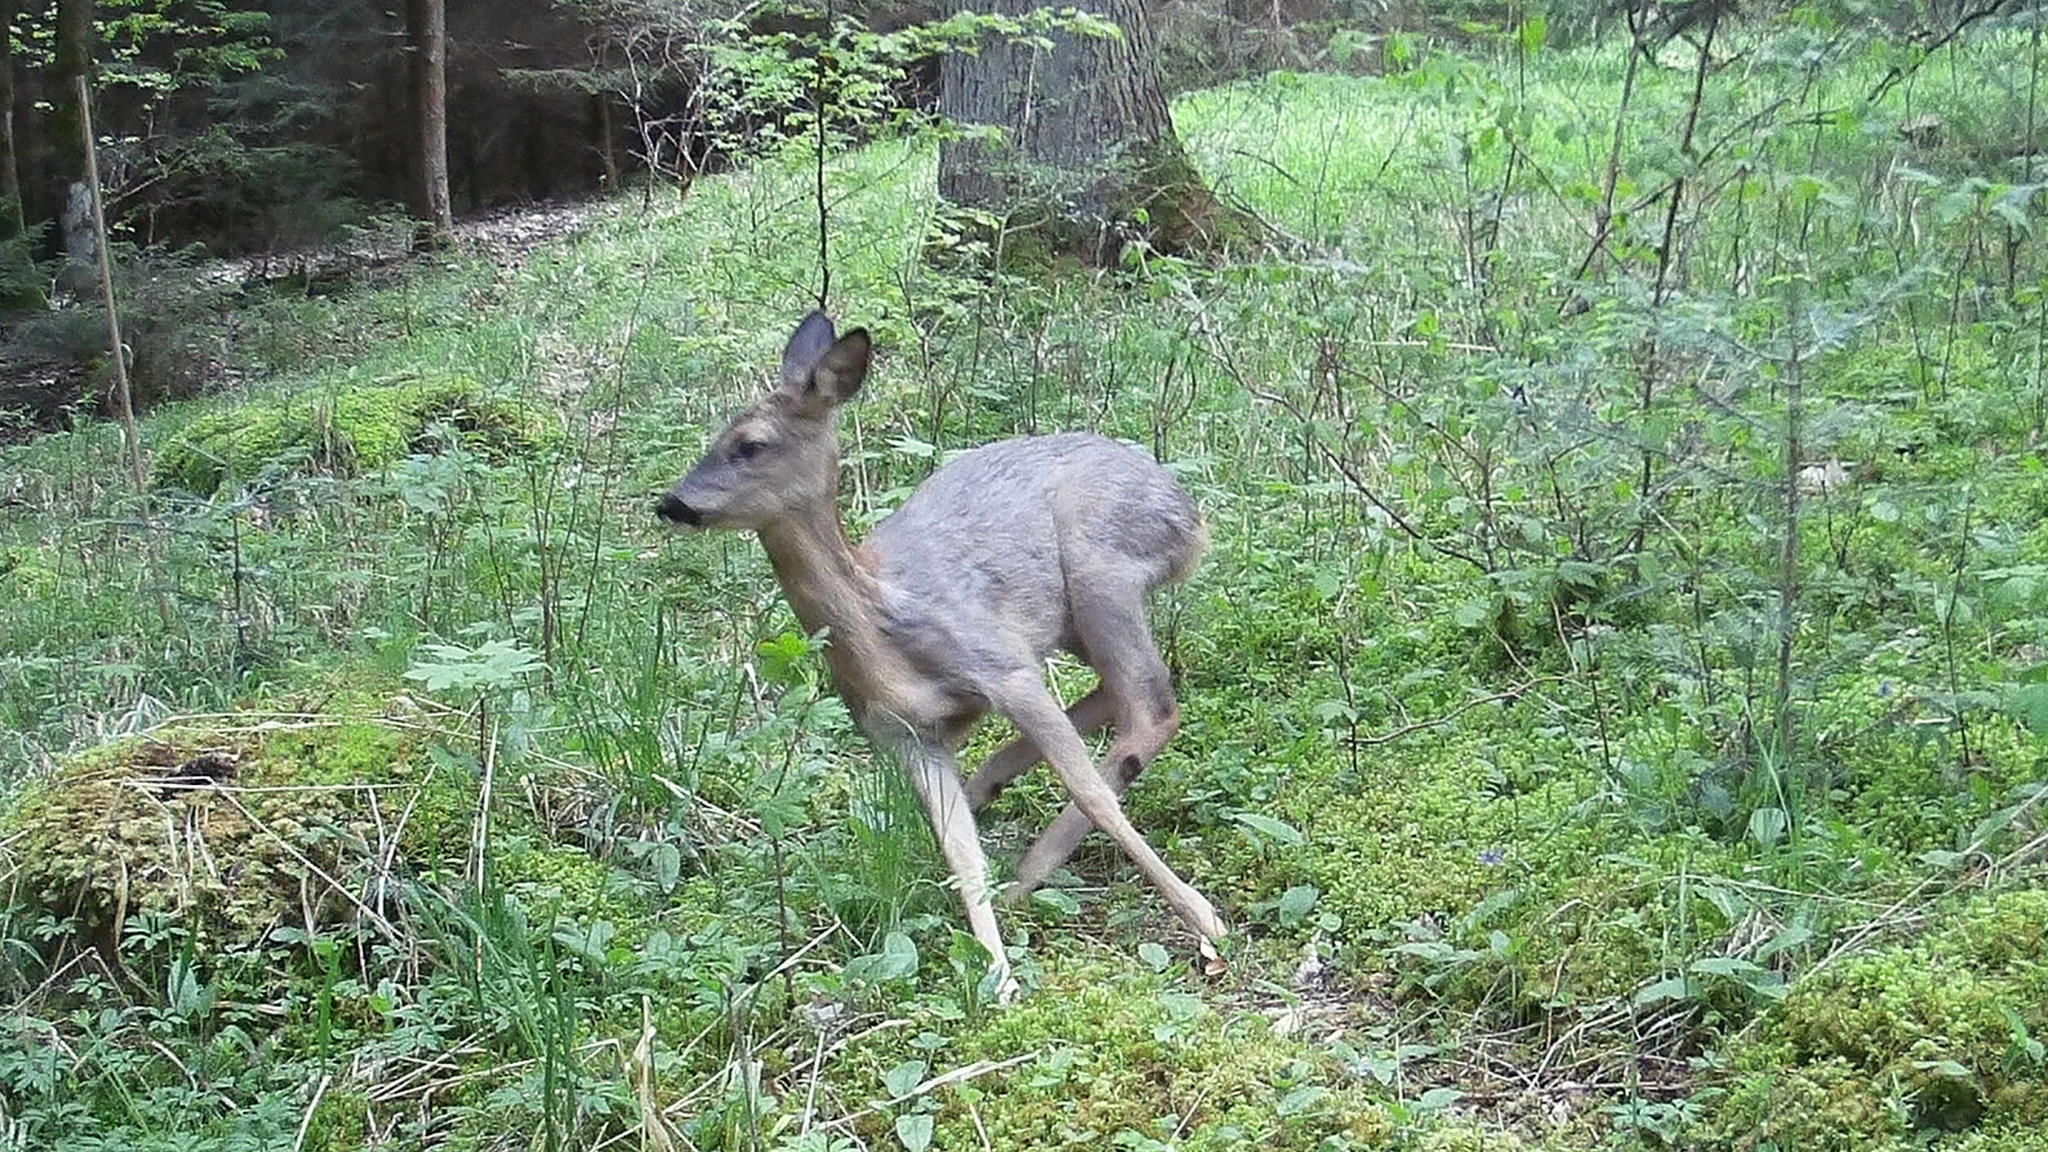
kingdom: Animalia
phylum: Chordata
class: Mammalia
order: Artiodactyla
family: Cervidae
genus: Capreolus
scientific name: Capreolus capreolus
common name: Western roe deer
